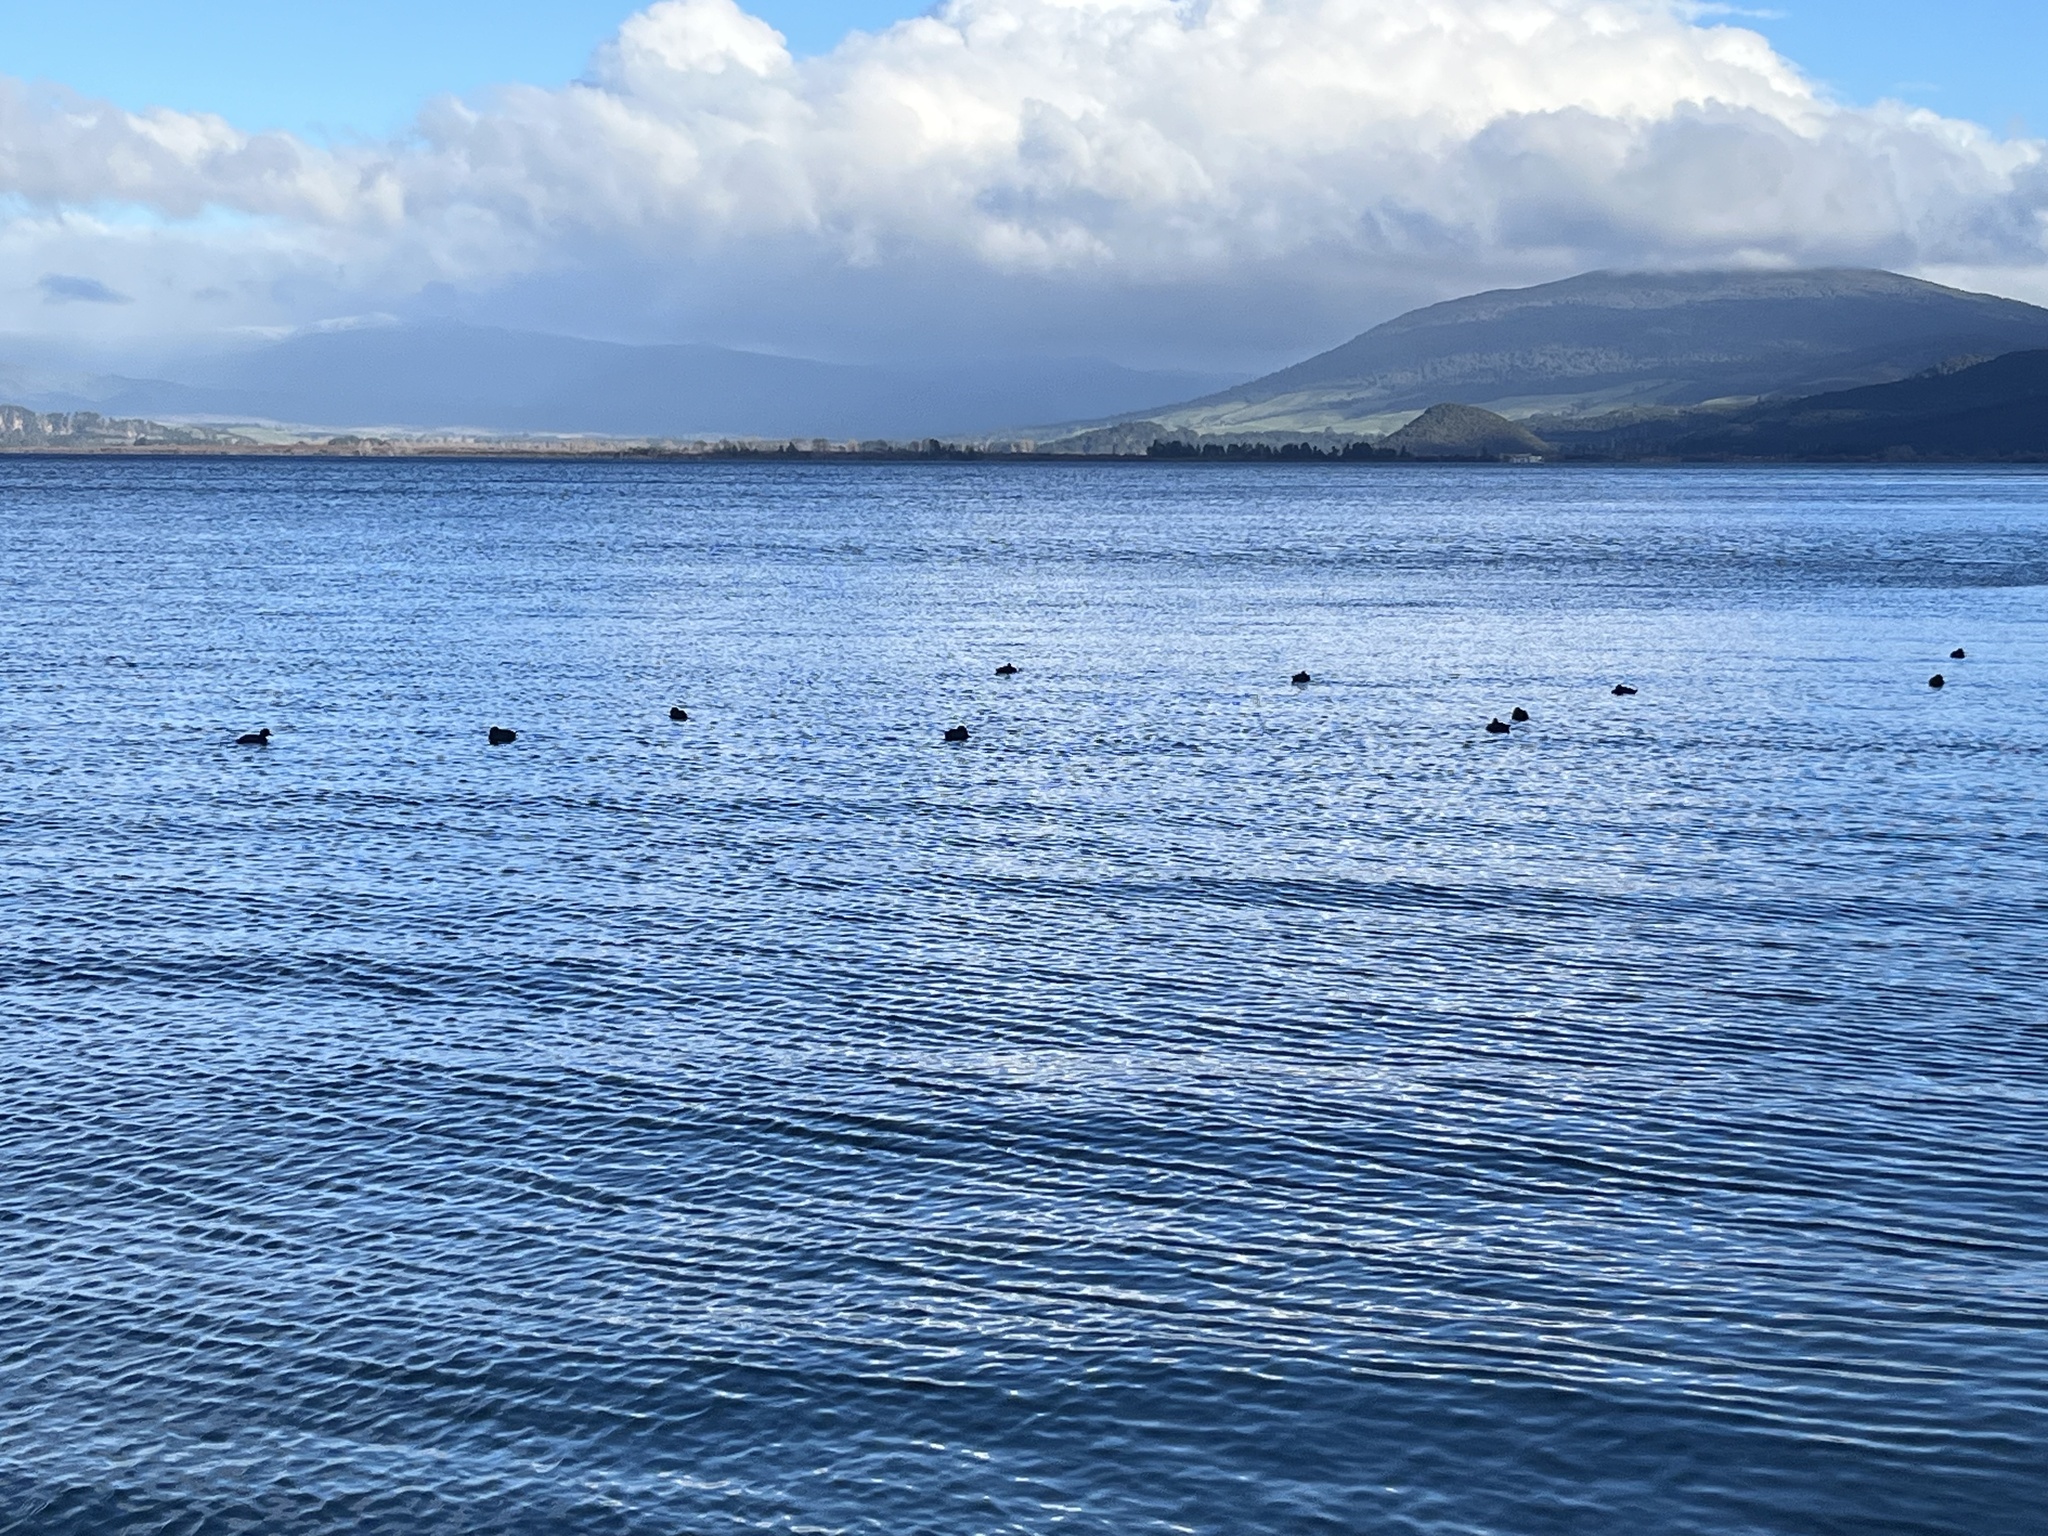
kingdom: Animalia
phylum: Chordata
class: Aves
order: Anseriformes
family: Anatidae
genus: Aythya
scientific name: Aythya novaeseelandiae
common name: New zealand scaup
